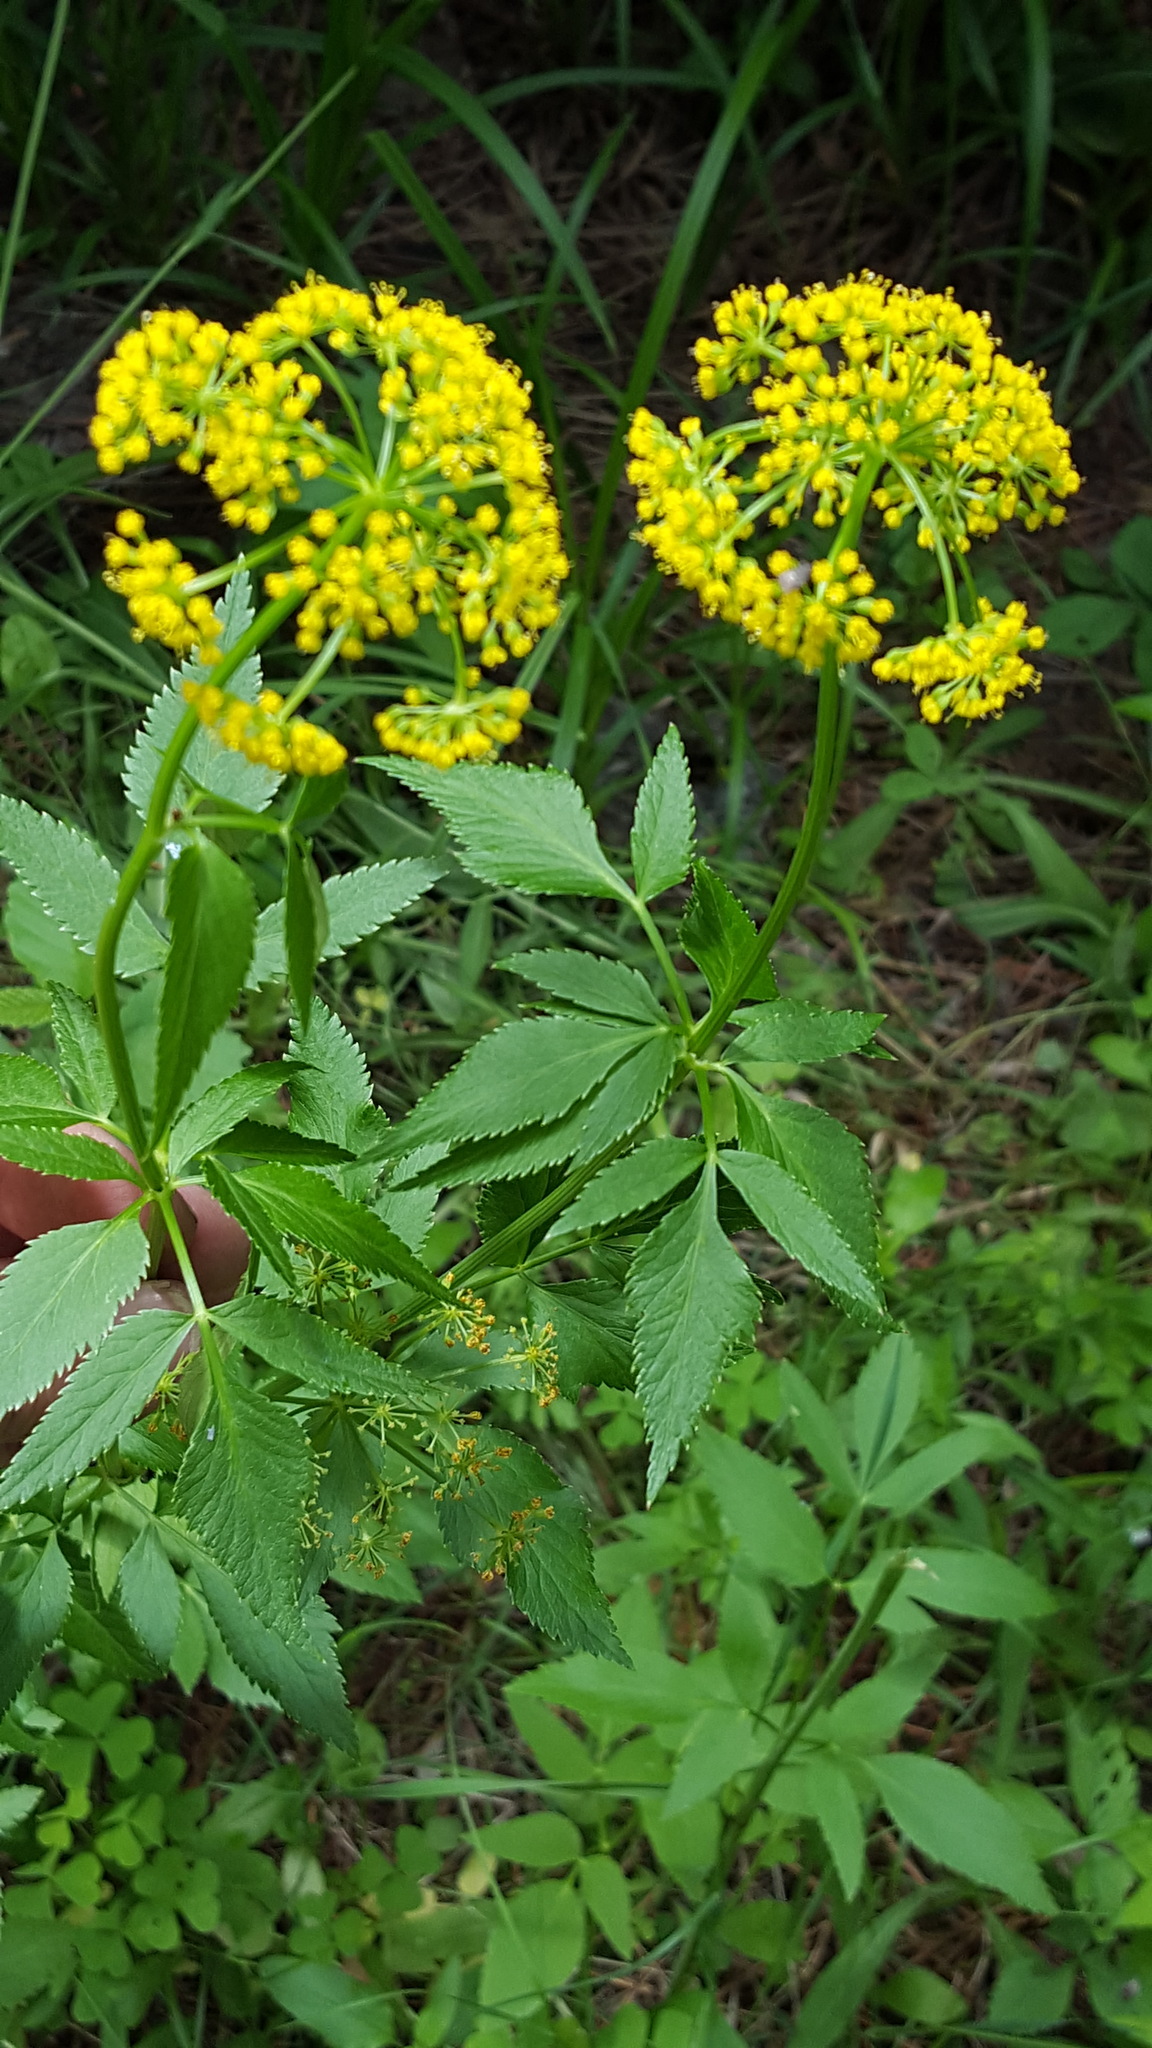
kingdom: Plantae
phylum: Tracheophyta
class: Magnoliopsida
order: Apiales
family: Apiaceae
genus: Zizia
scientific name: Zizia aurea
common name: Golden alexanders
